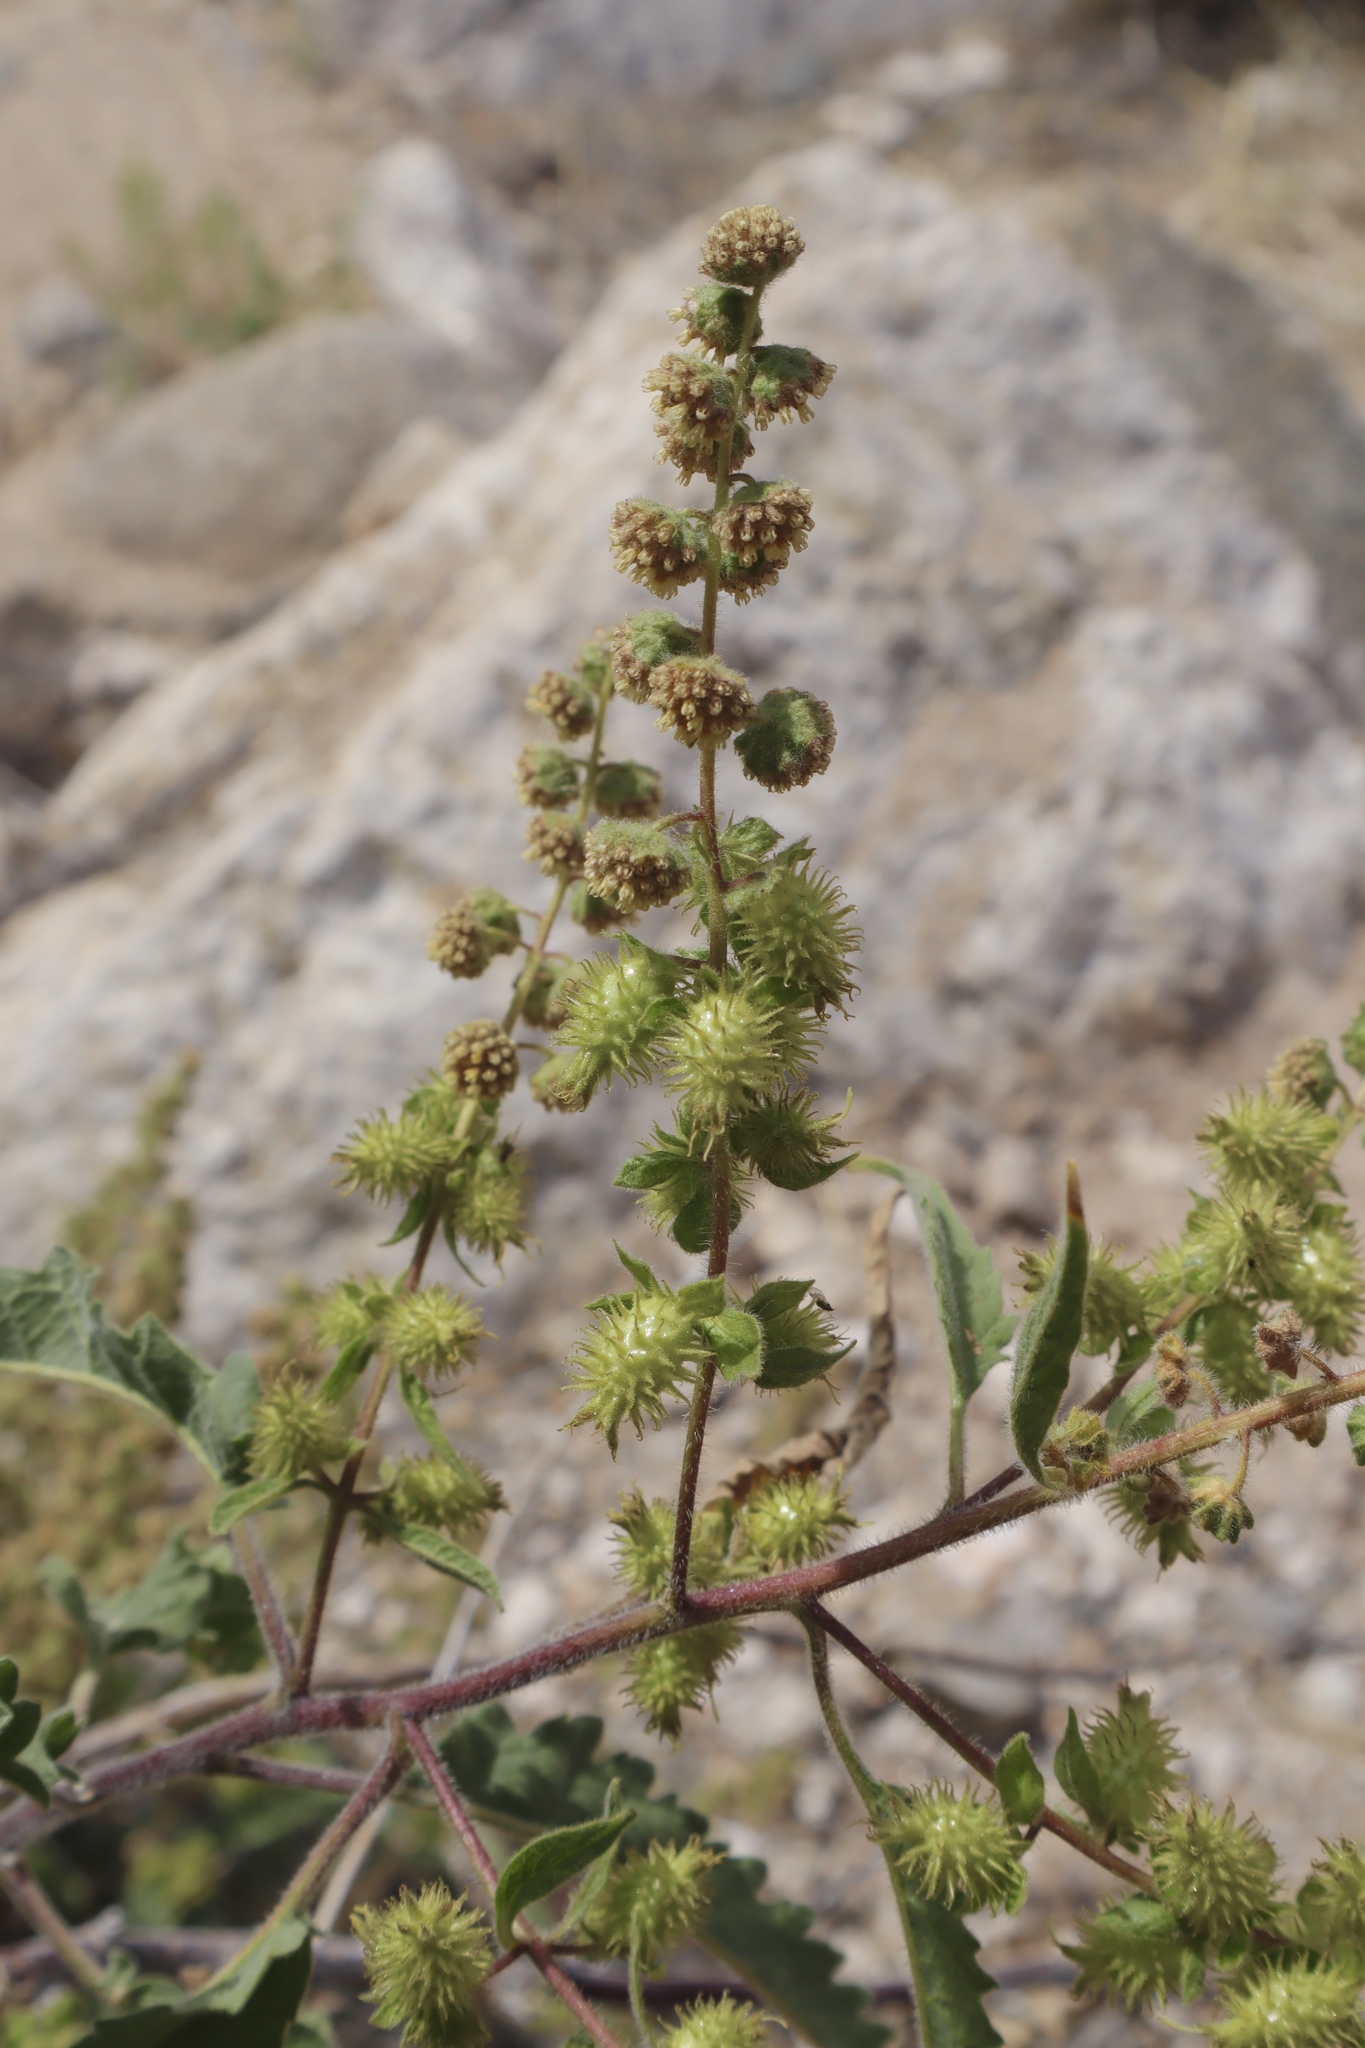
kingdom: Plantae
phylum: Tracheophyta
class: Magnoliopsida
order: Asterales
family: Asteraceae
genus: Ambrosia
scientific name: Ambrosia ambrosioides
